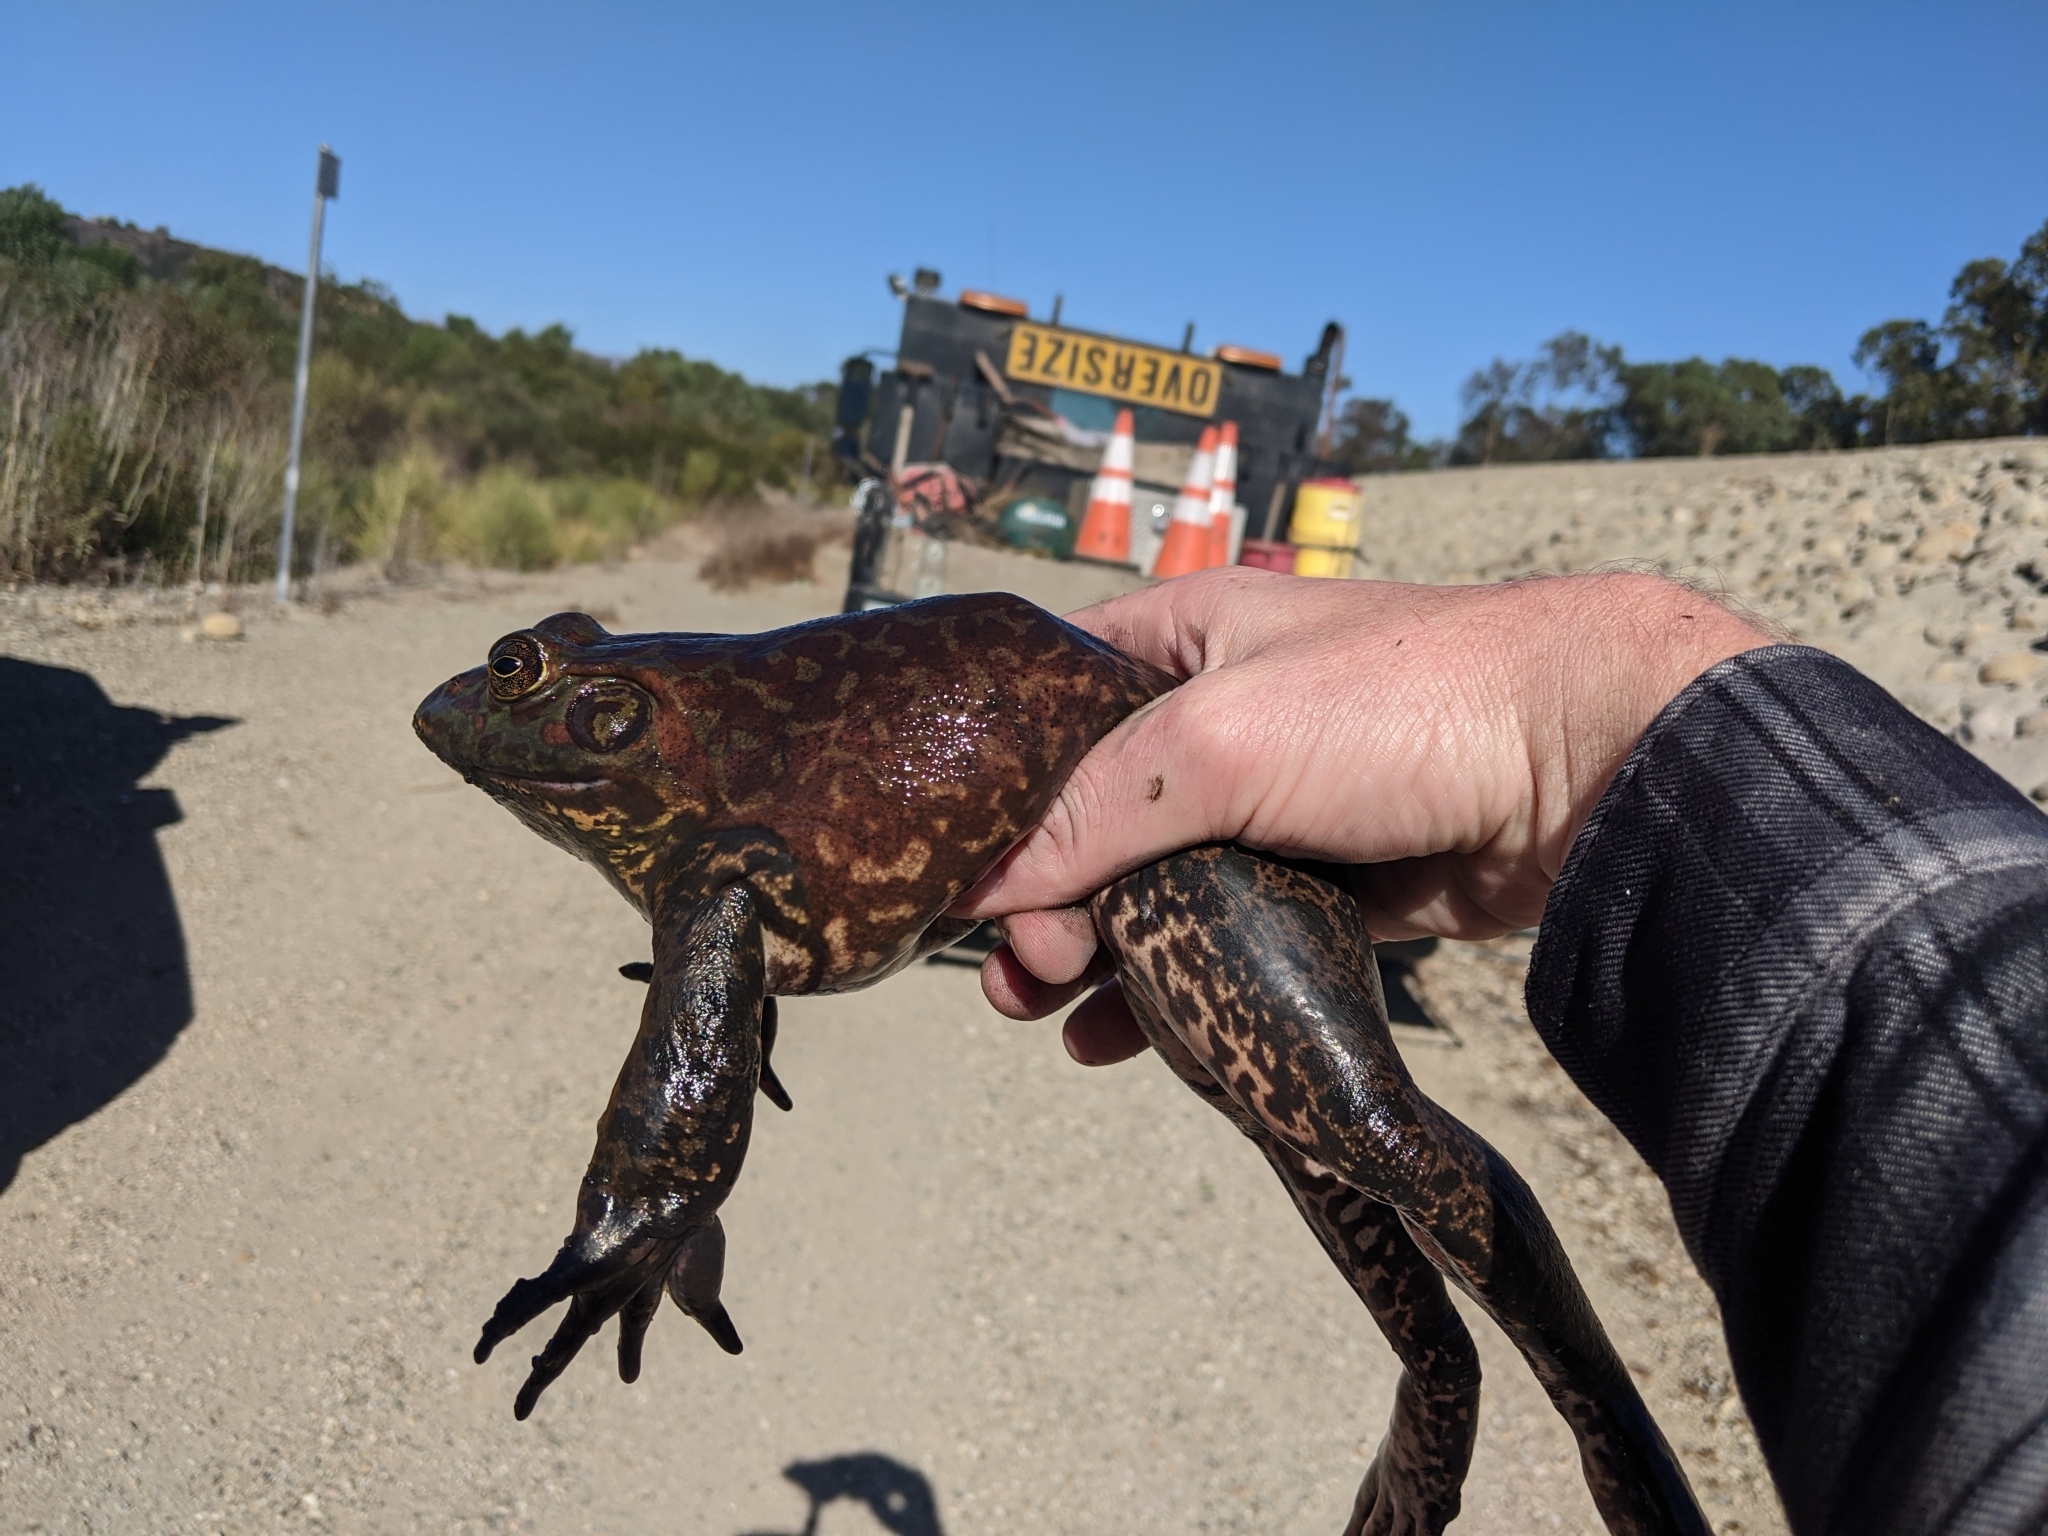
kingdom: Animalia
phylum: Chordata
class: Amphibia
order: Anura
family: Ranidae
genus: Lithobates
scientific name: Lithobates catesbeianus
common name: American bullfrog
